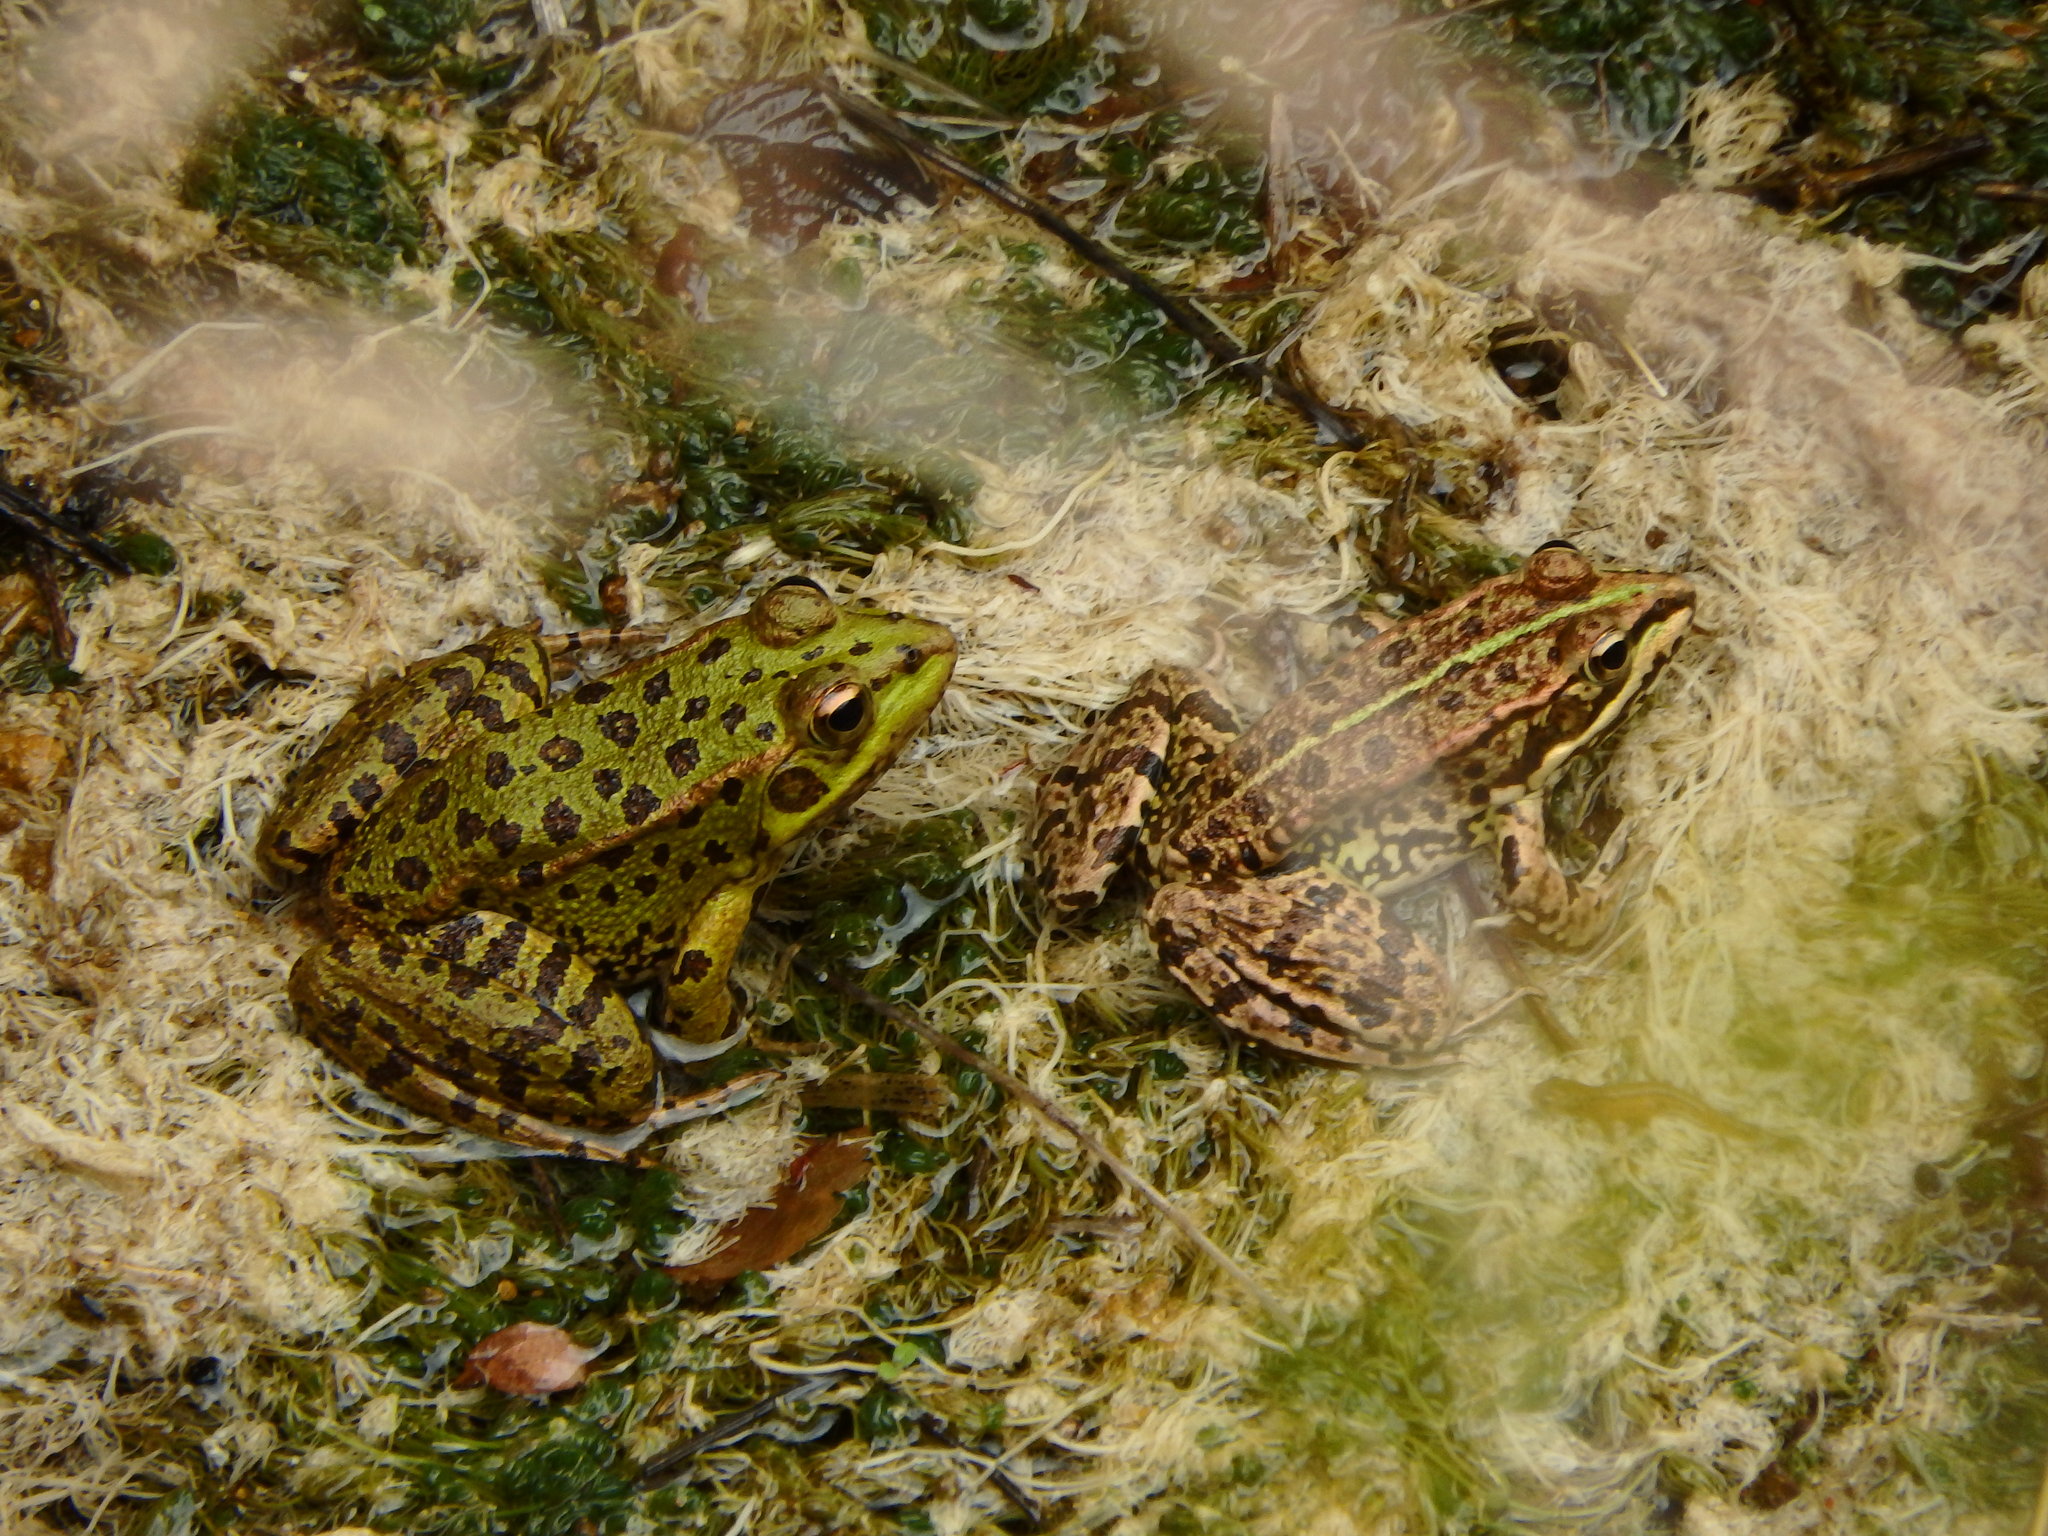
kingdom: Animalia
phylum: Chordata
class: Amphibia
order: Anura
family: Ranidae
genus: Pelophylax
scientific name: Pelophylax perezi
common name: Perez's frog
